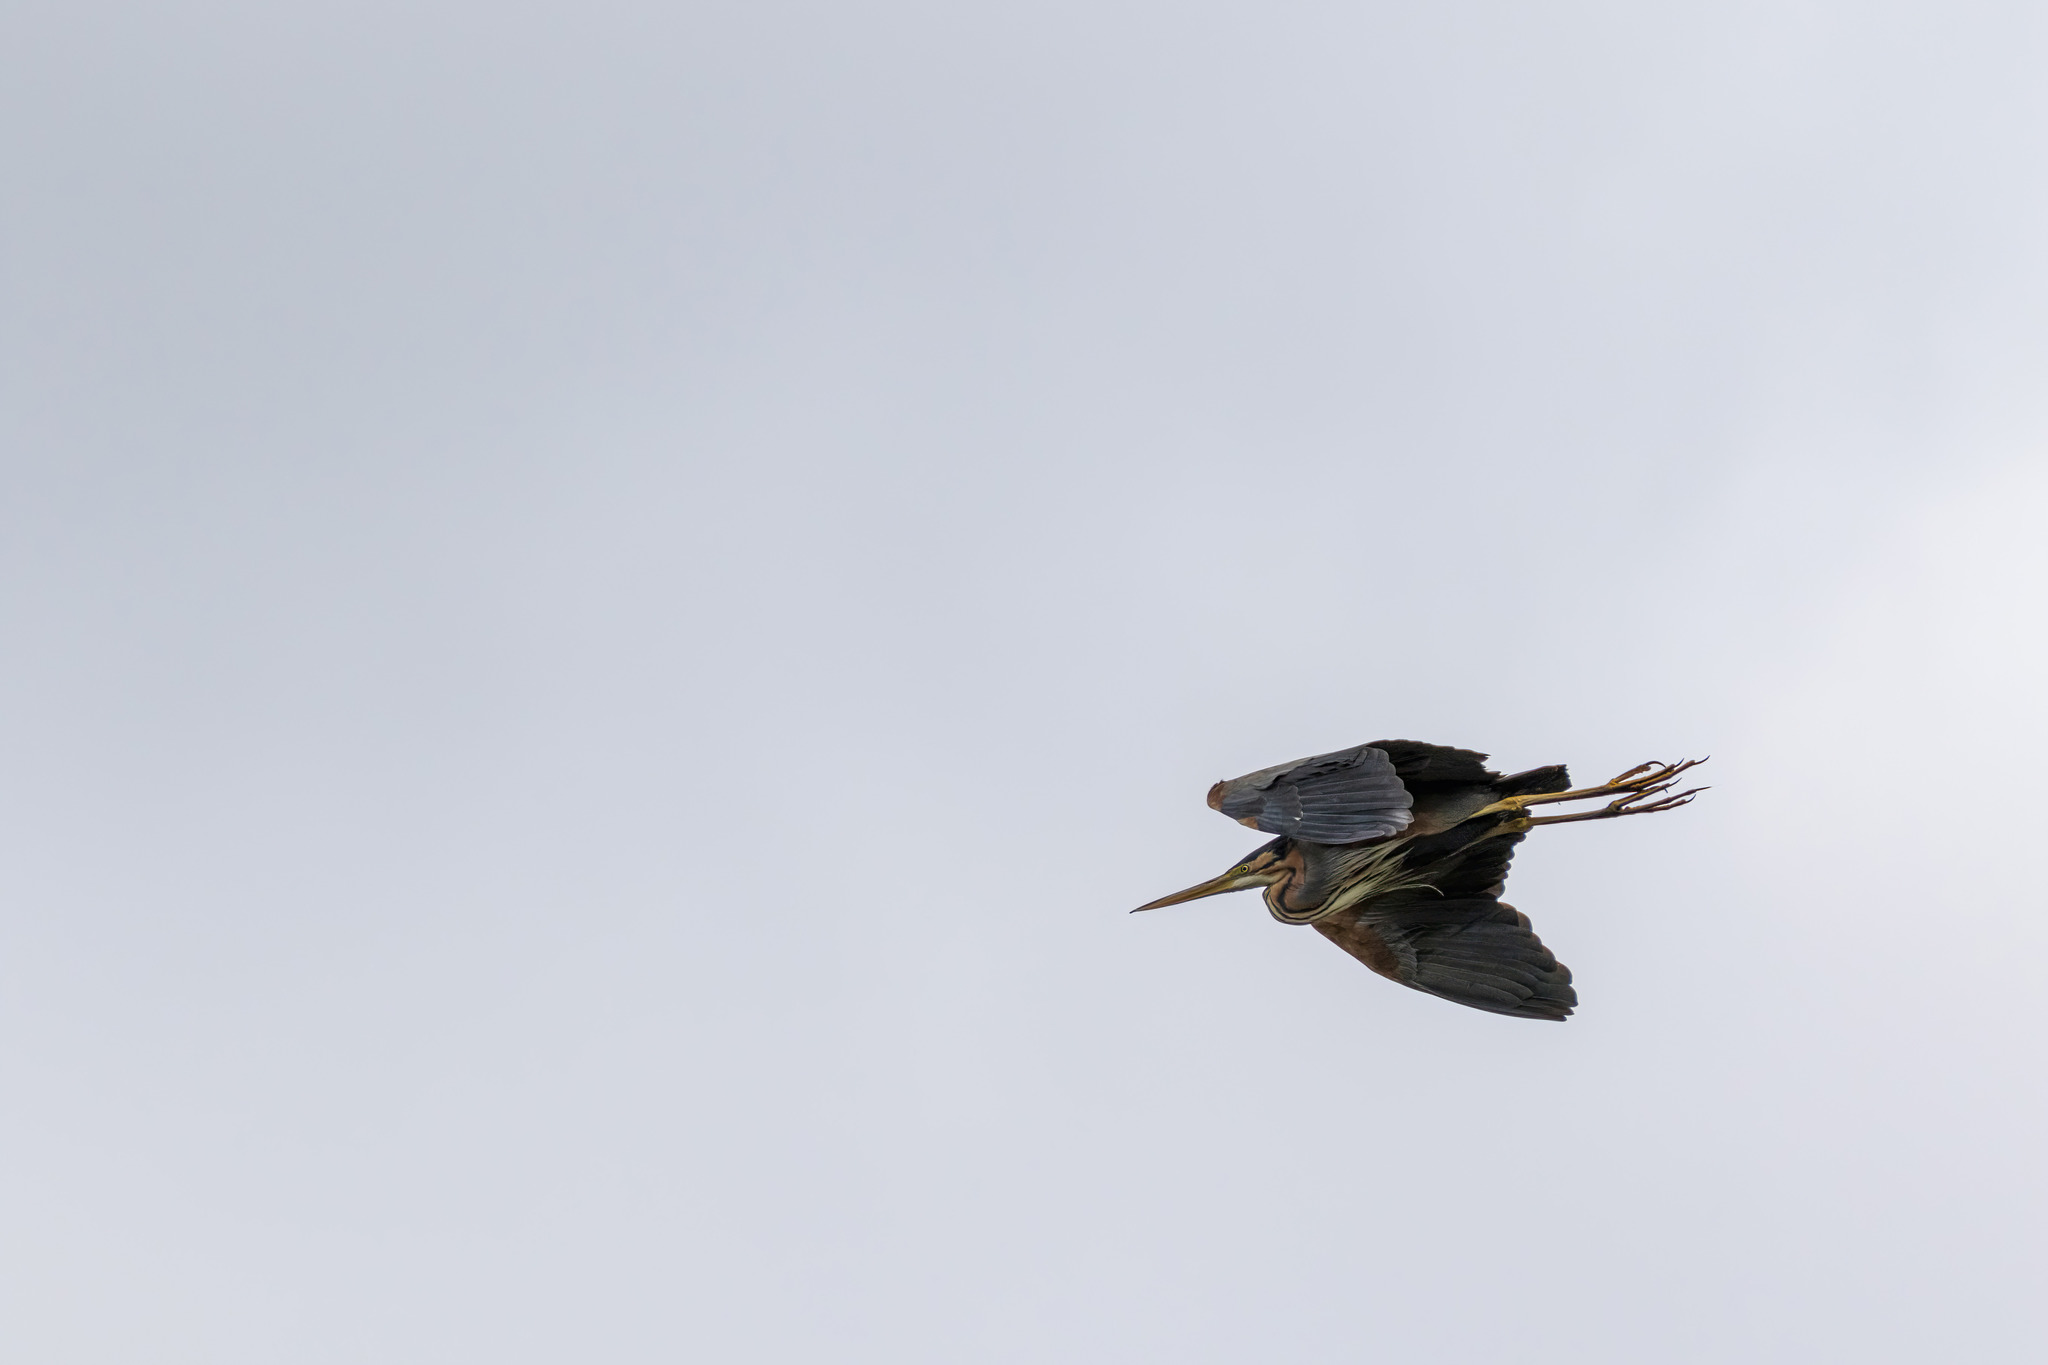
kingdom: Animalia
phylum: Chordata
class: Aves
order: Pelecaniformes
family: Ardeidae
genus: Ardea
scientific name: Ardea purpurea
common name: Purple heron
